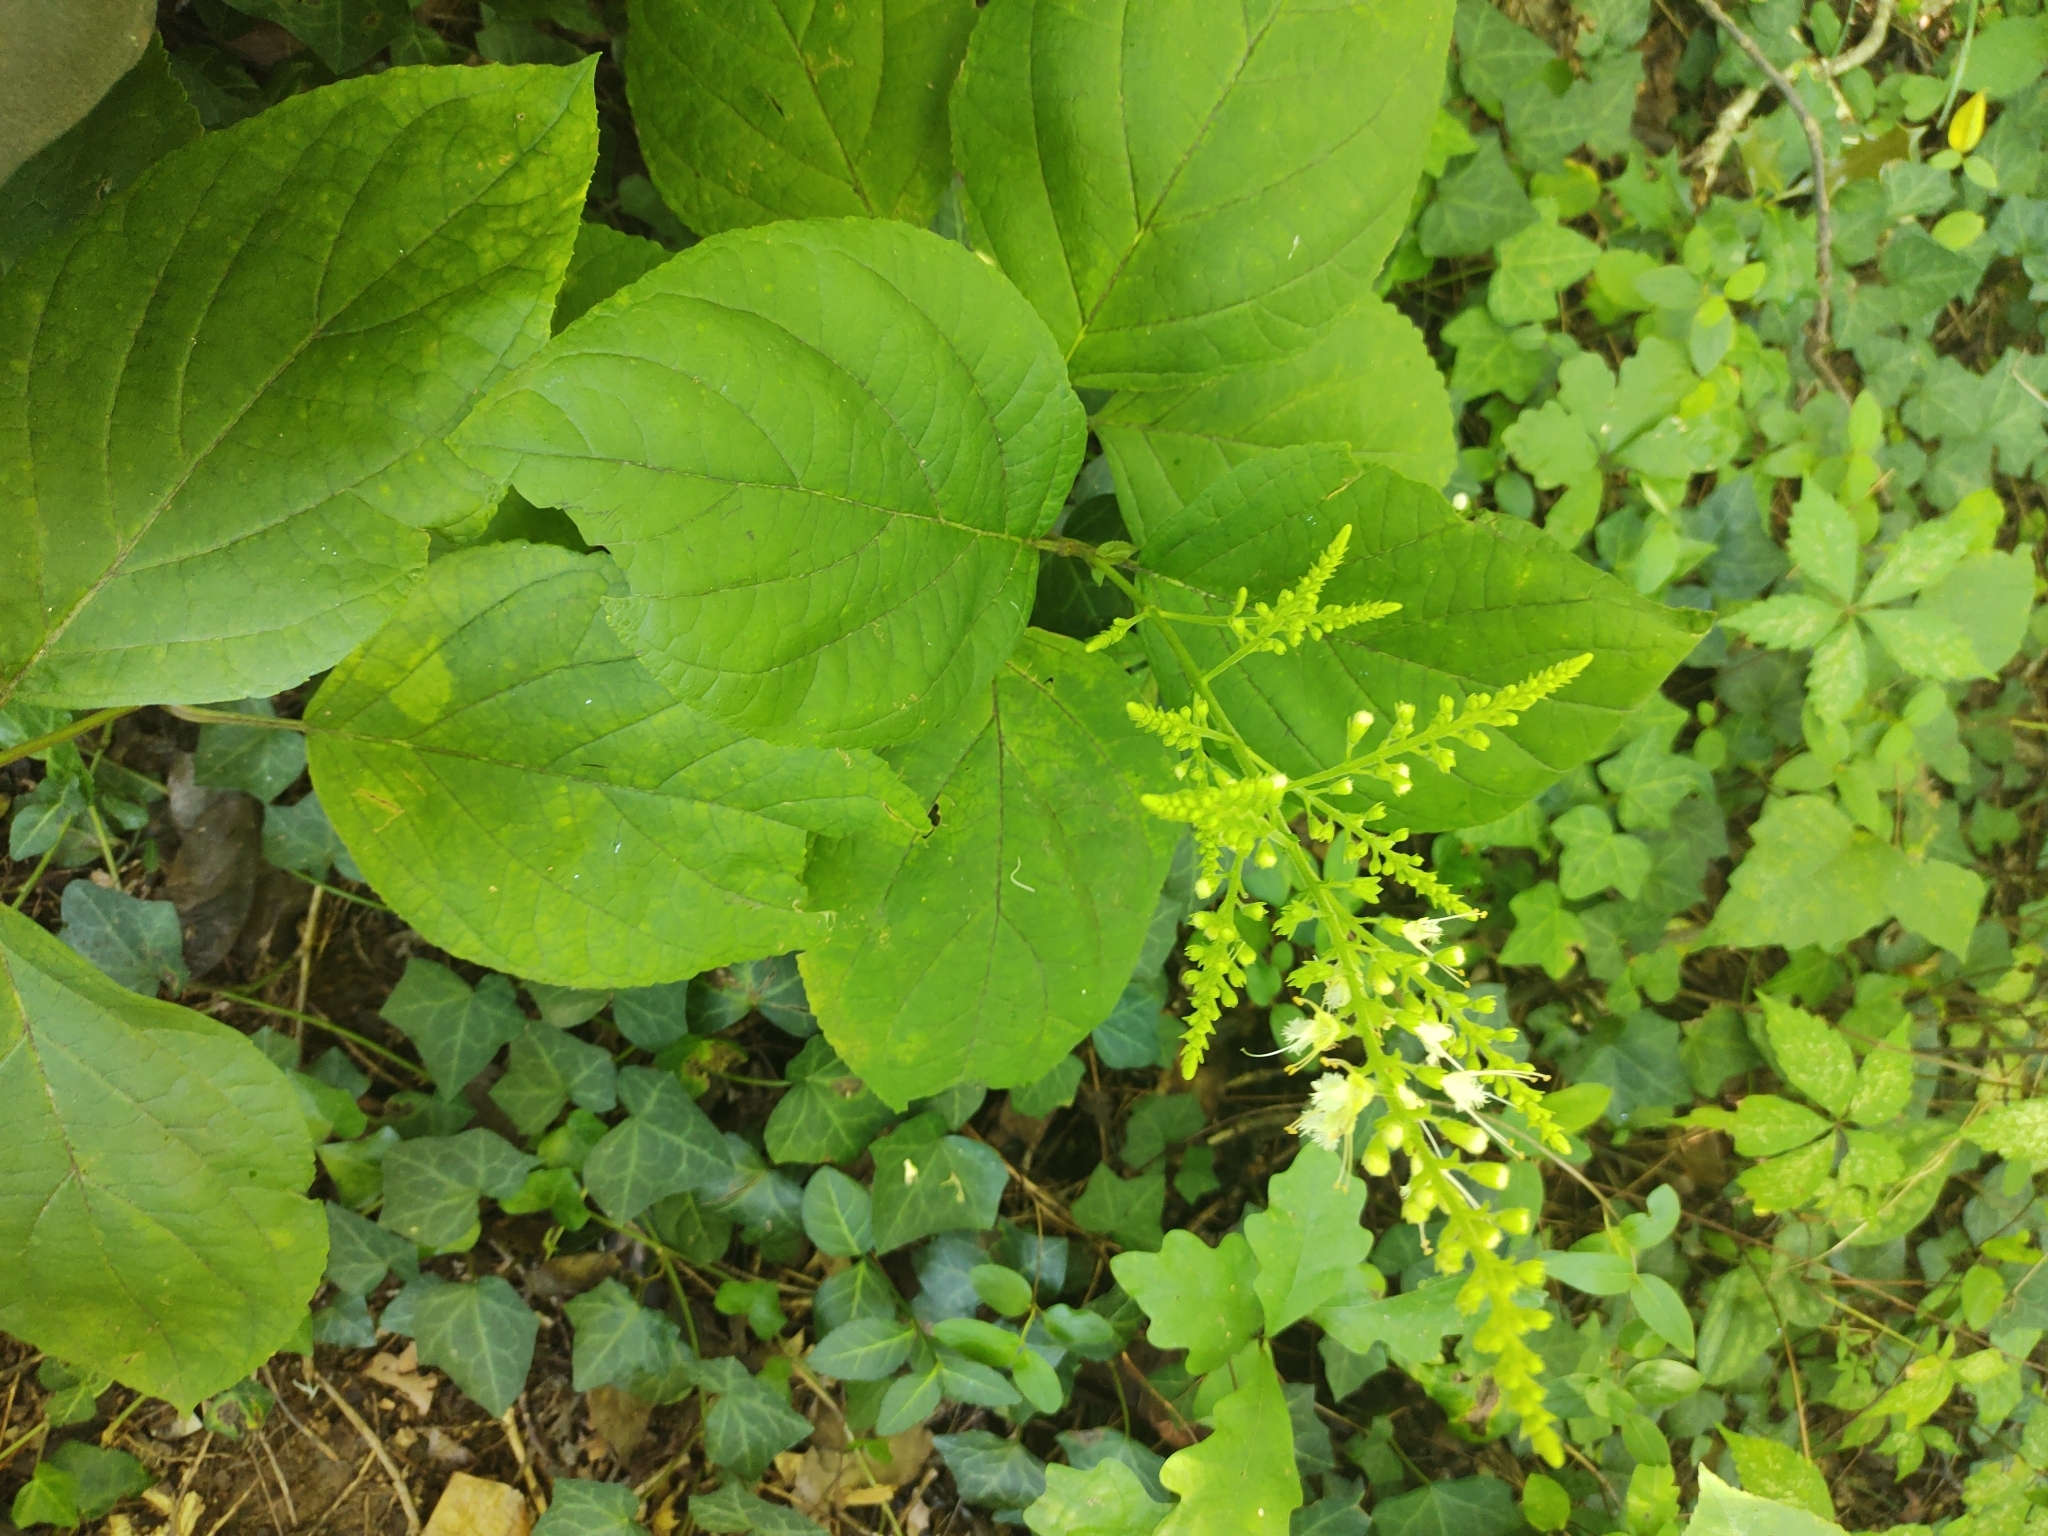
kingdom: Plantae
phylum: Tracheophyta
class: Magnoliopsida
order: Lamiales
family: Lamiaceae
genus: Collinsonia
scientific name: Collinsonia canadensis
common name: Northern horsebalm
